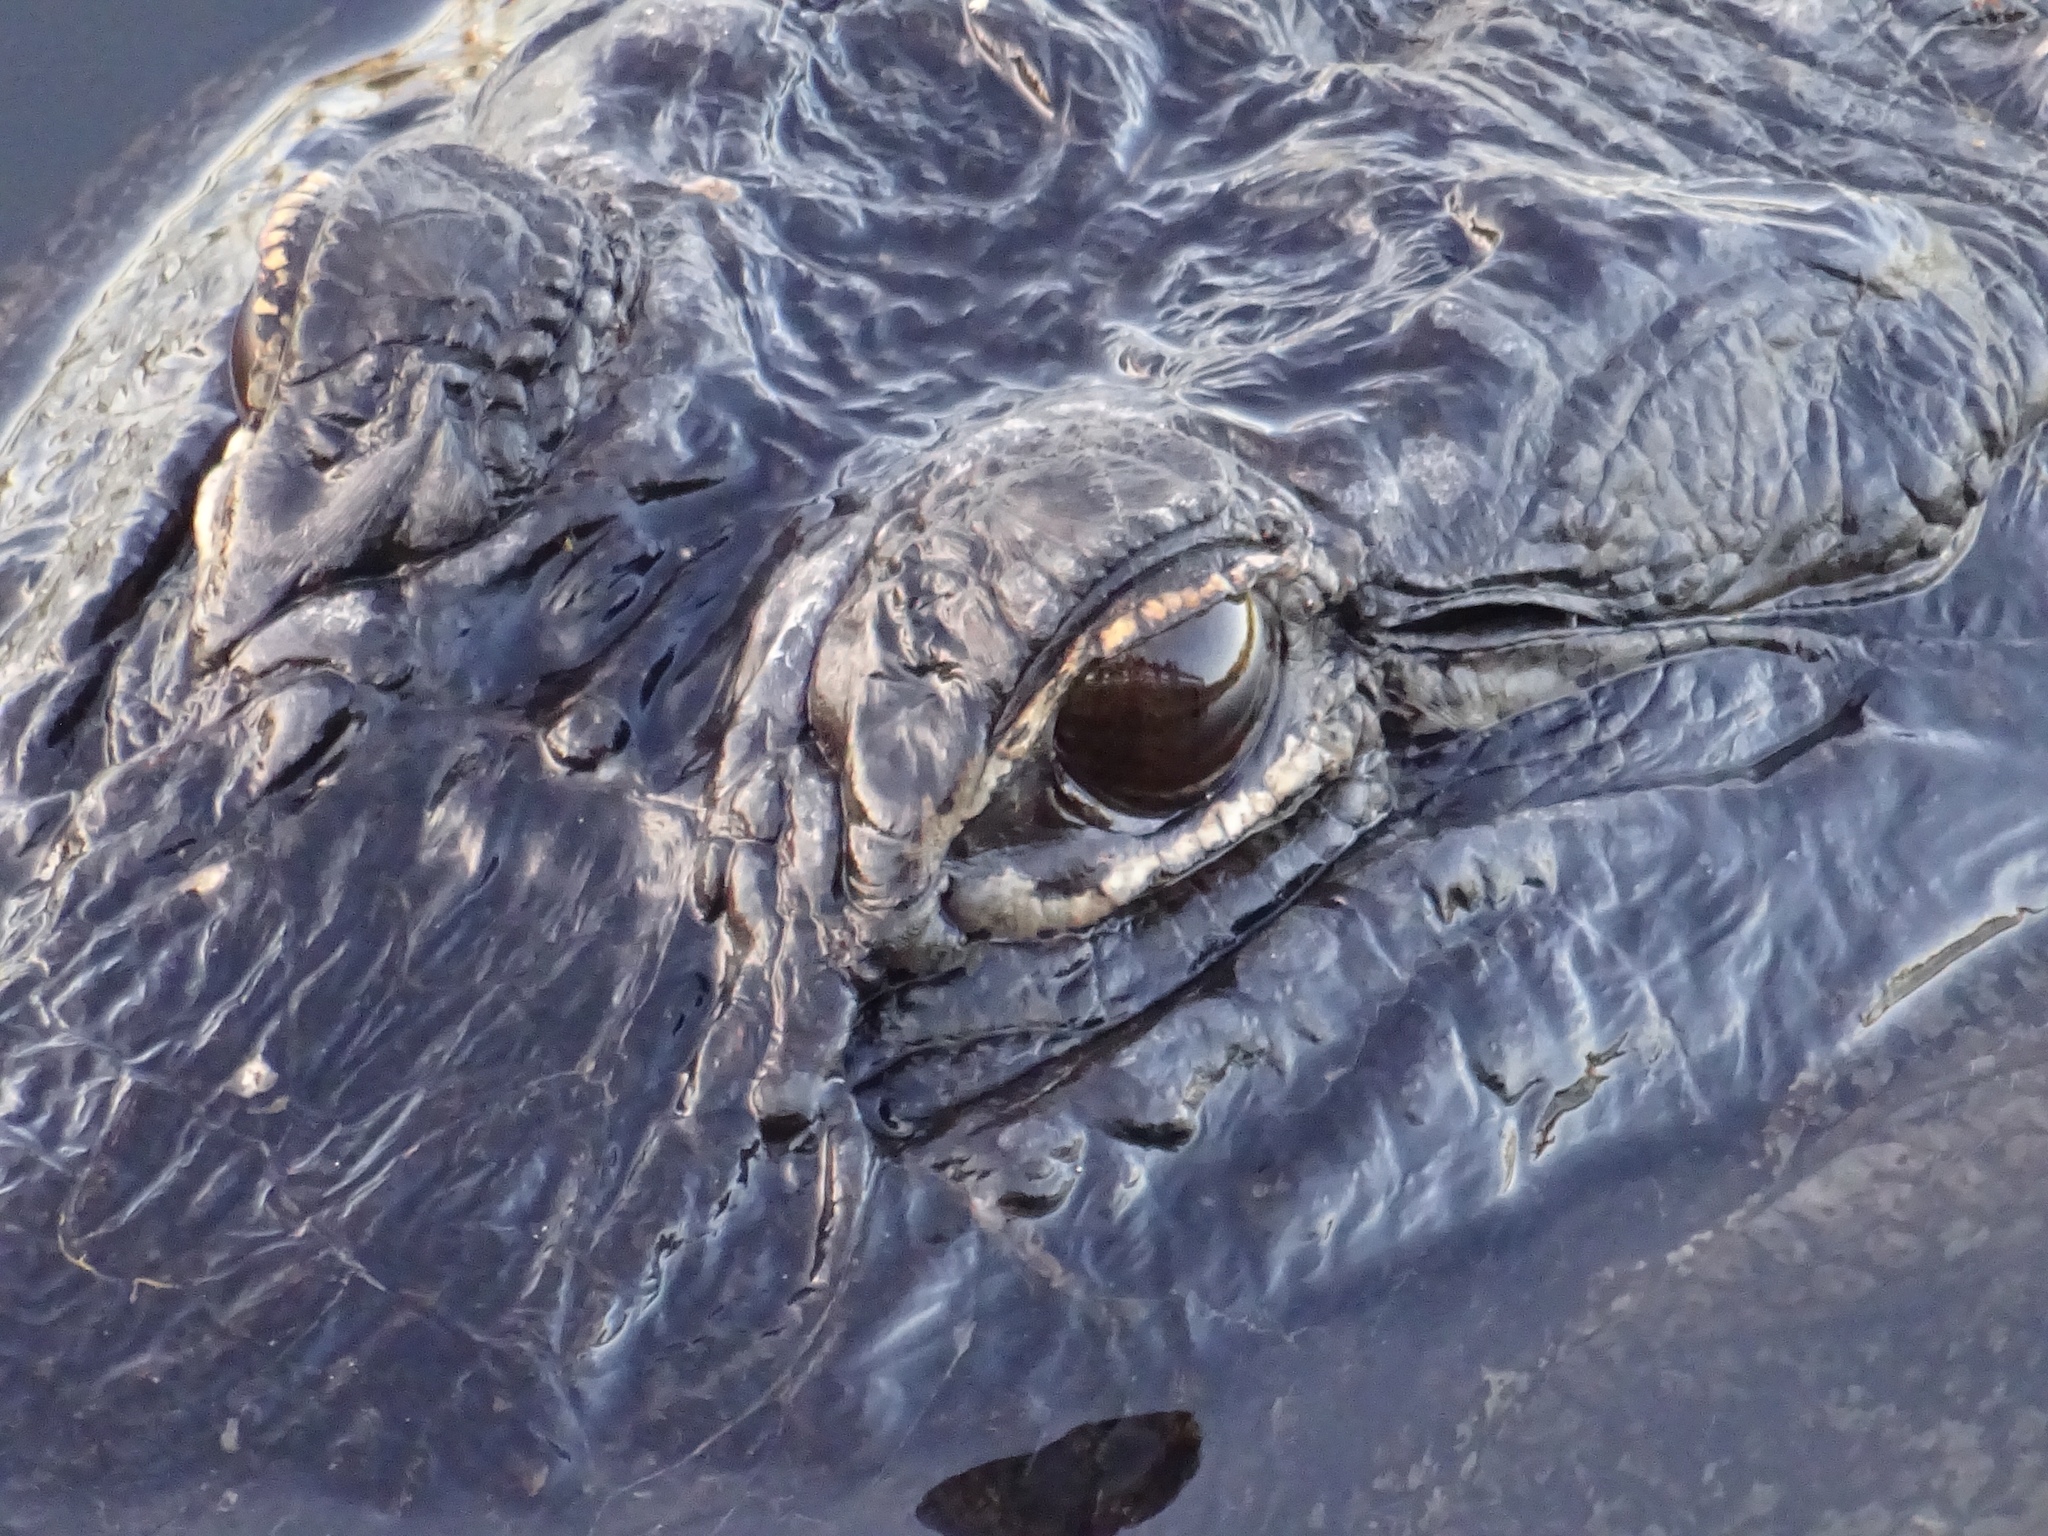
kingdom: Animalia
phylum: Chordata
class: Crocodylia
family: Alligatoridae
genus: Alligator
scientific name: Alligator mississippiensis
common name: American alligator
